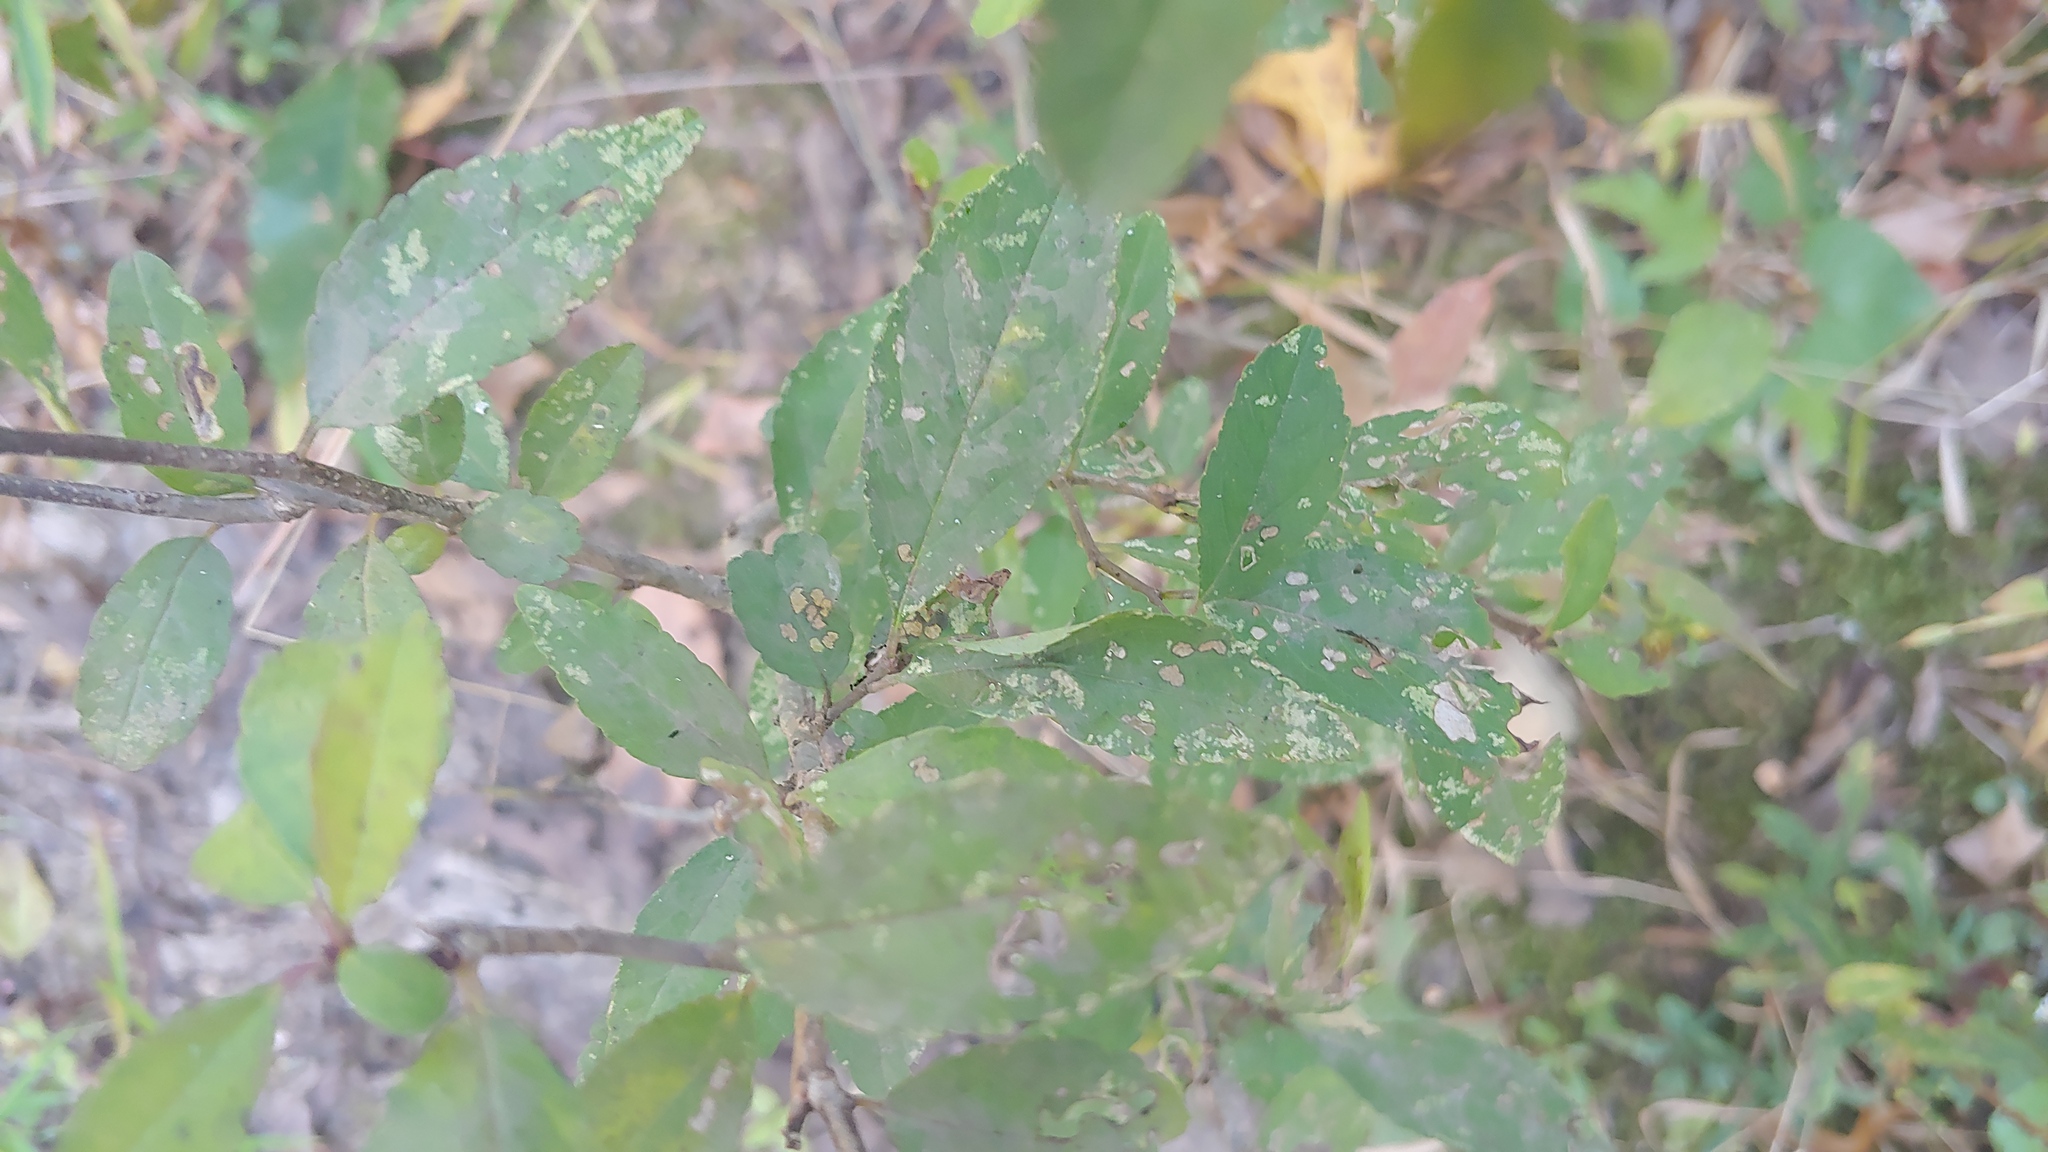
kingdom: Plantae
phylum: Tracheophyta
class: Magnoliopsida
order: Aquifoliales
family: Aquifoliaceae
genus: Ilex
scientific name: Ilex decidua
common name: Possum-haw
